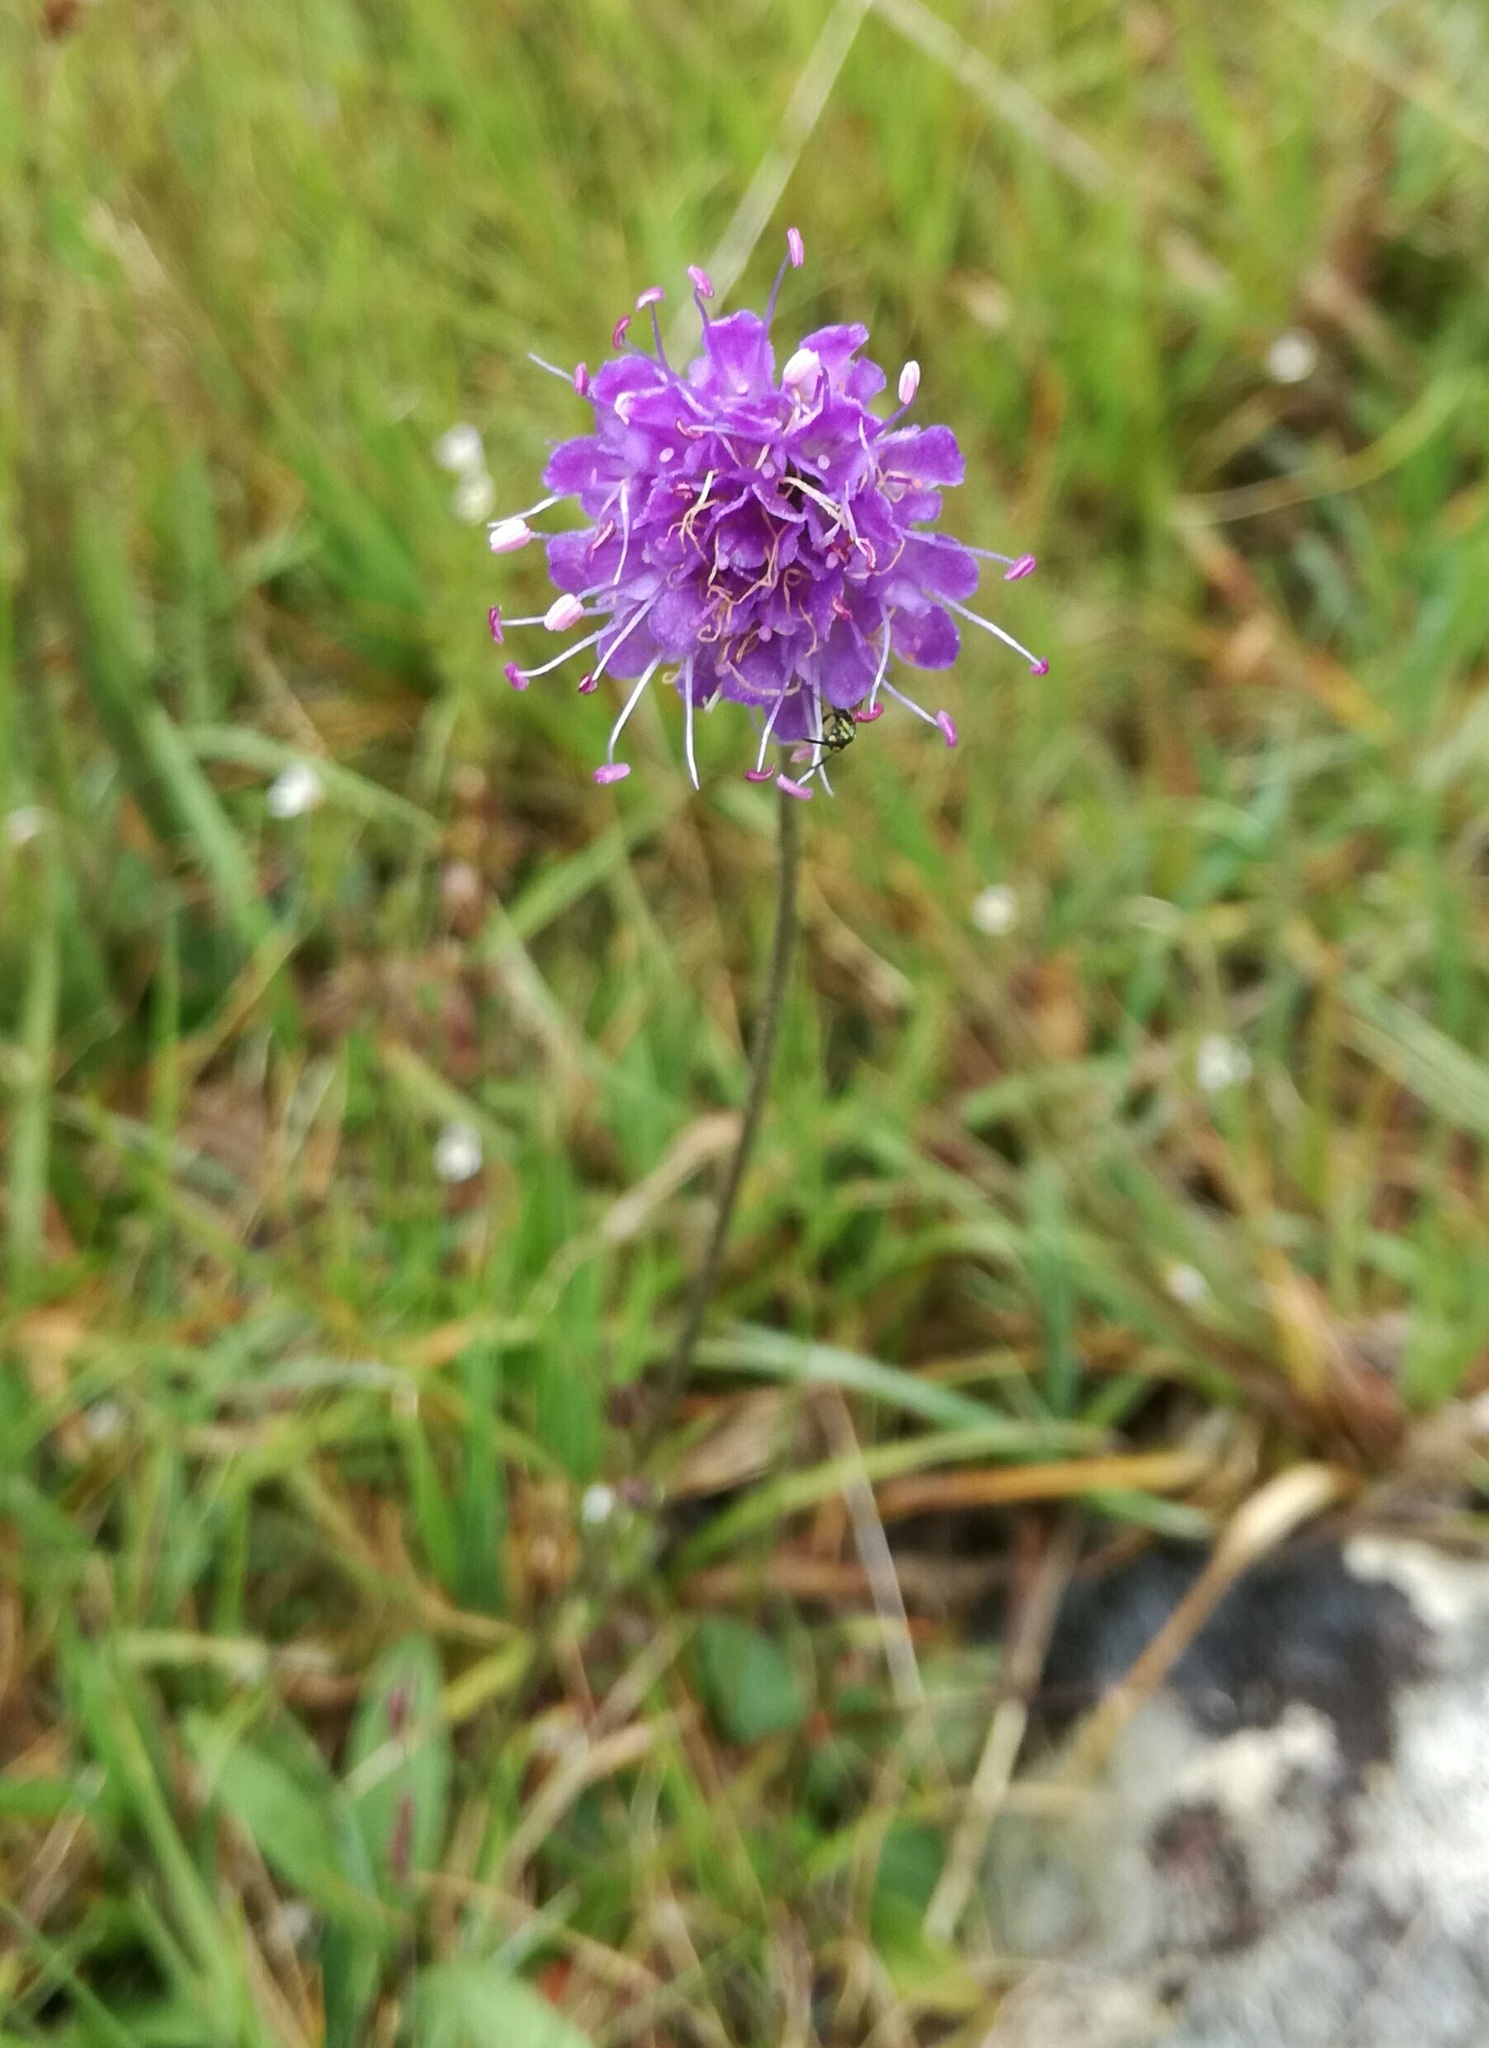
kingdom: Plantae
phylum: Tracheophyta
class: Magnoliopsida
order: Dipsacales
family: Caprifoliaceae
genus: Succisa
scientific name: Succisa pratensis
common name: Devil's-bit
